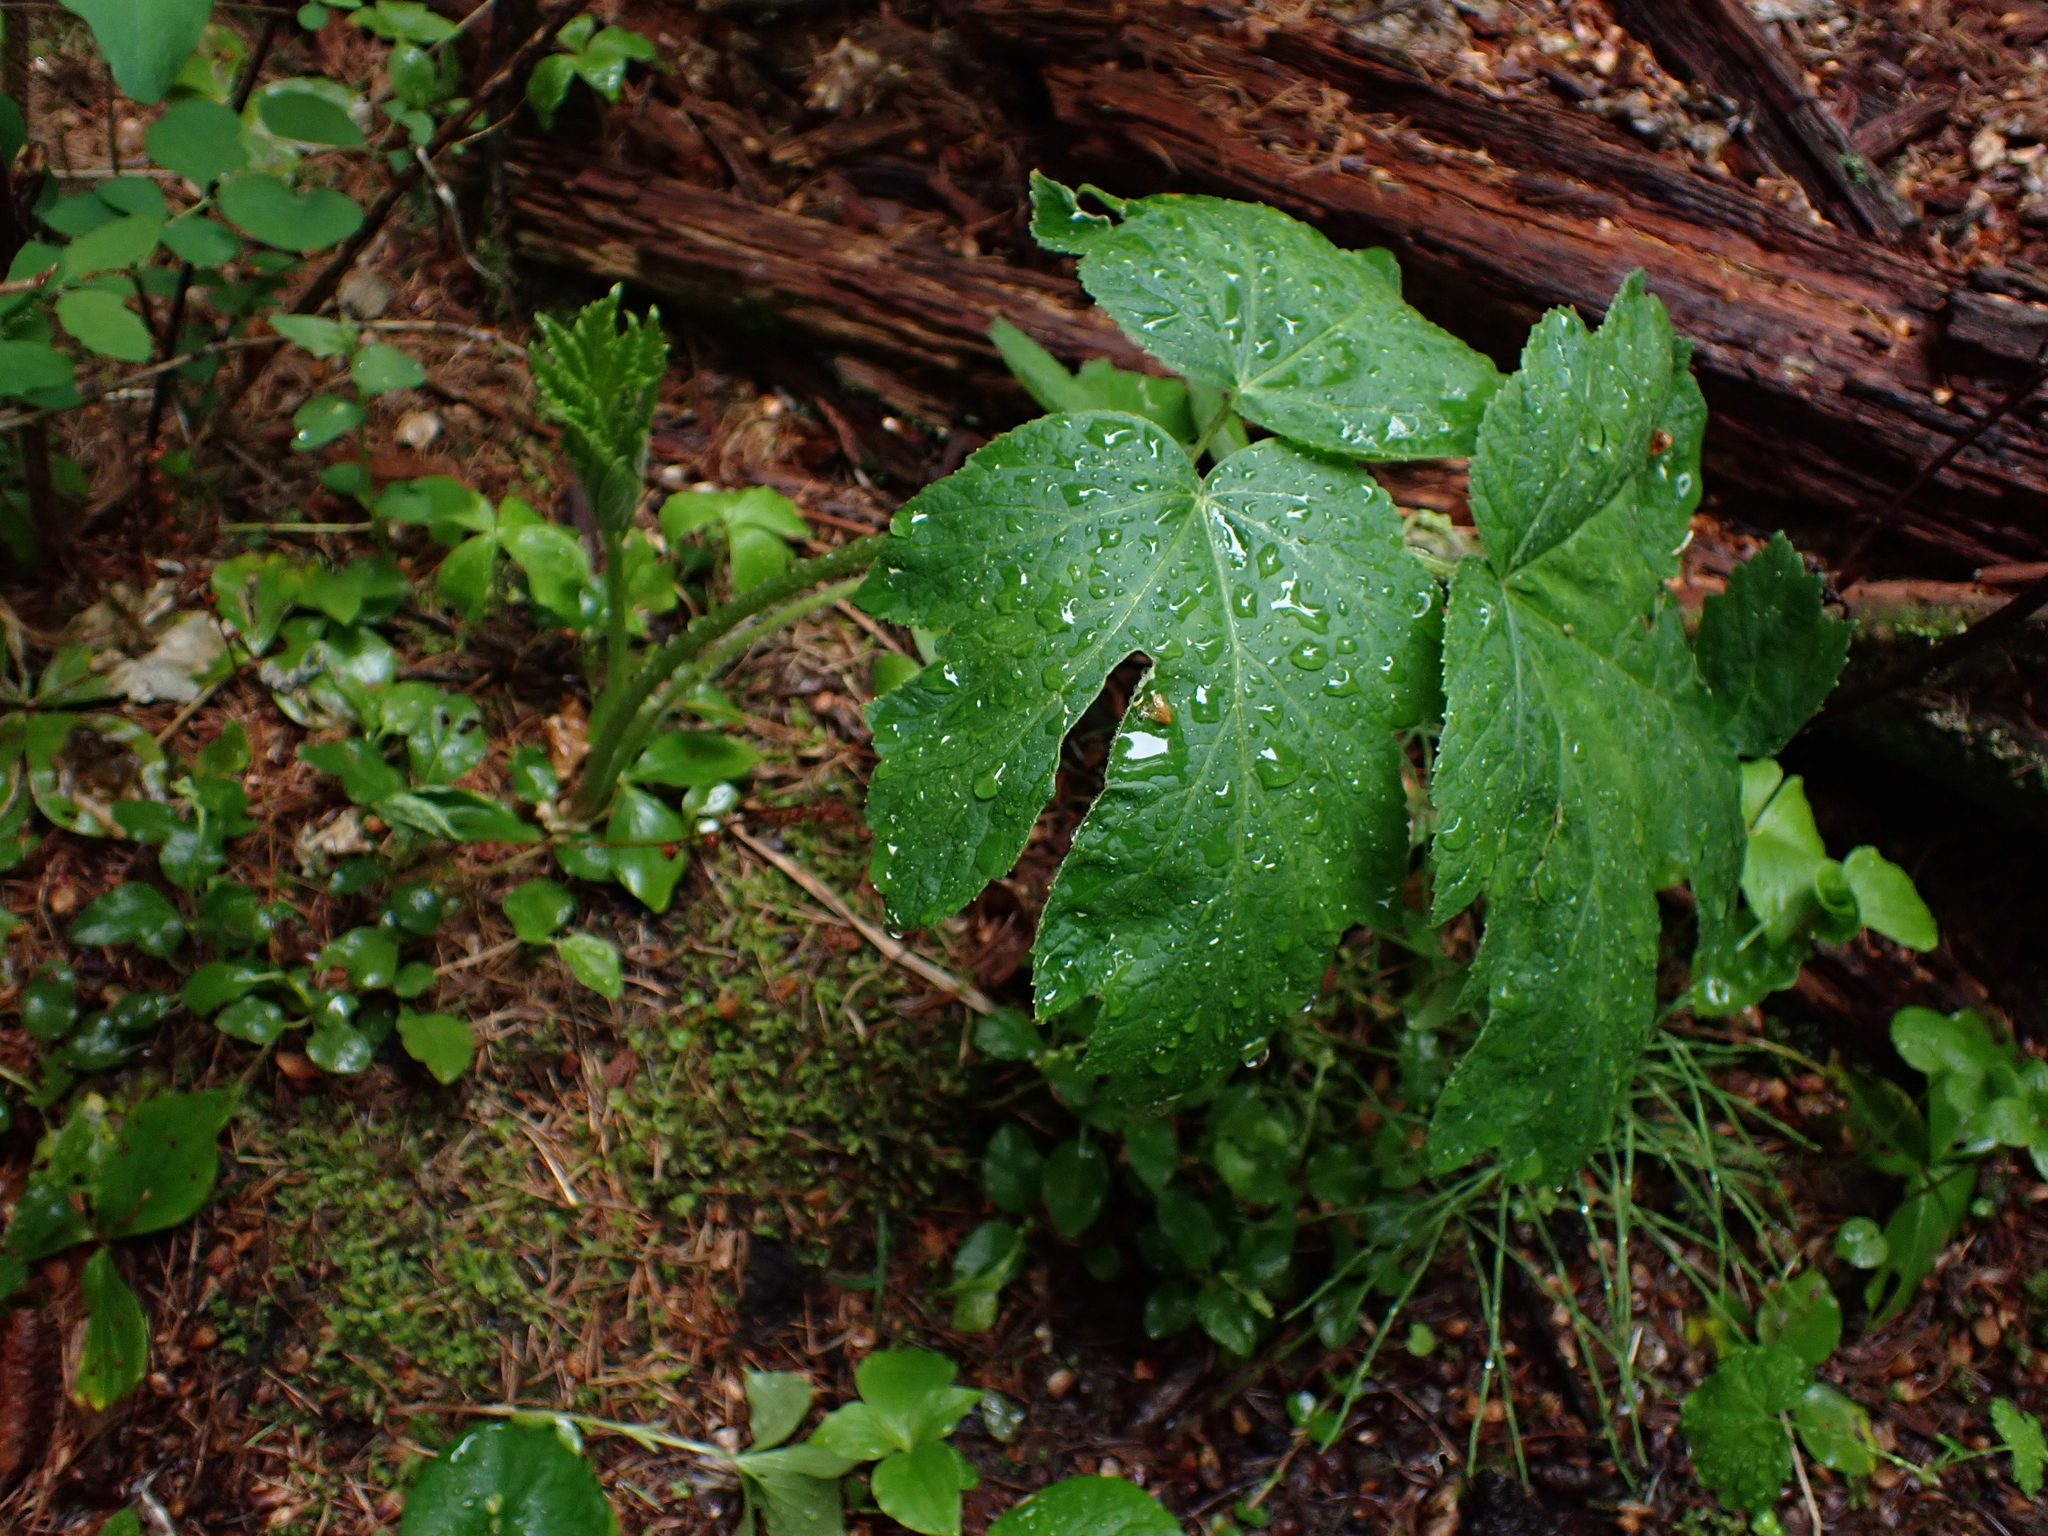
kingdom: Plantae
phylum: Tracheophyta
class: Magnoliopsida
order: Apiales
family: Apiaceae
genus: Heracleum
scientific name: Heracleum maximum
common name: American cow parsnip
